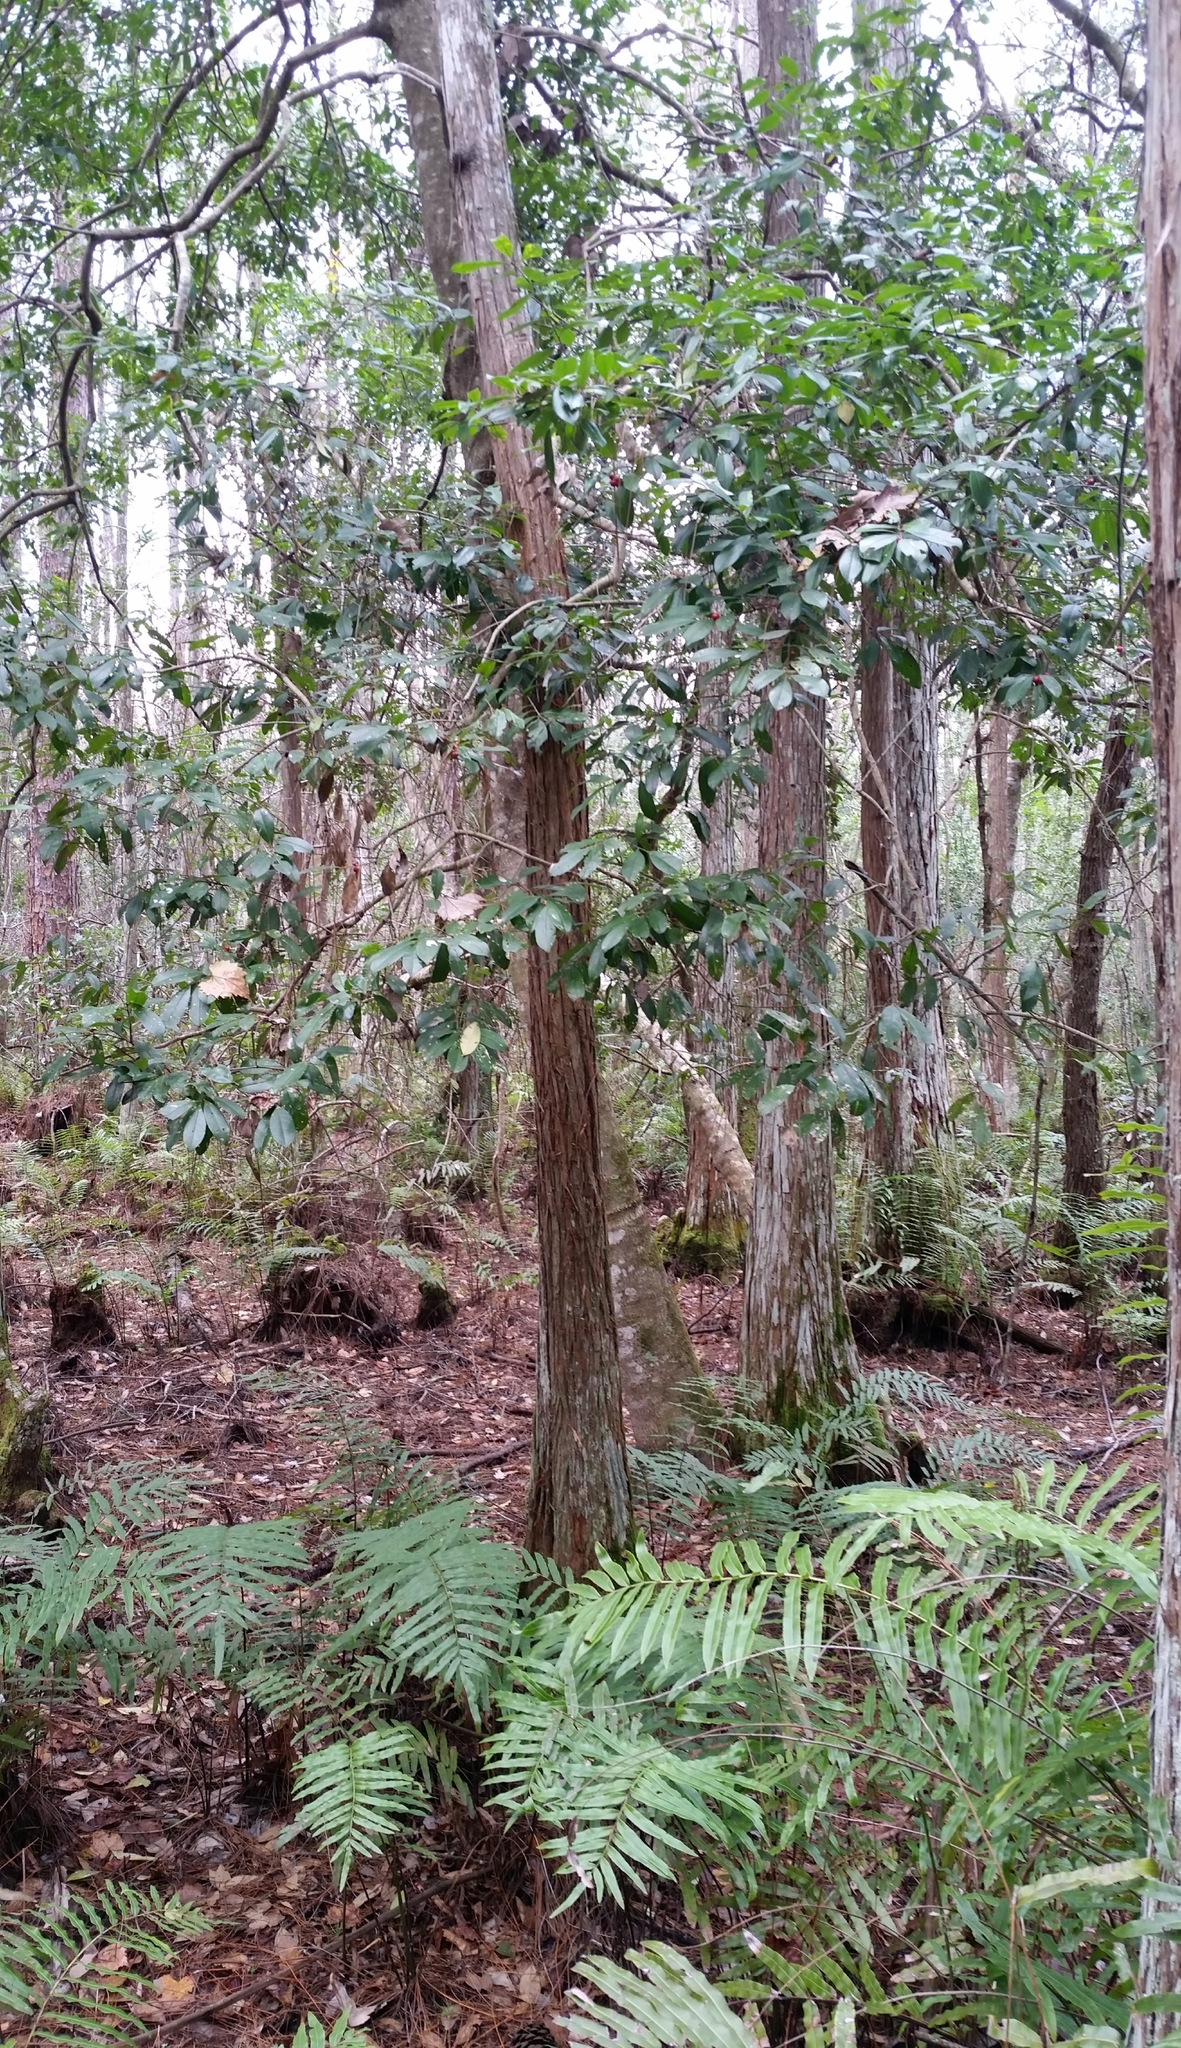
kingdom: Plantae
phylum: Tracheophyta
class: Magnoliopsida
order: Aquifoliales
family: Aquifoliaceae
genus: Ilex
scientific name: Ilex cassine
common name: Dahoon
